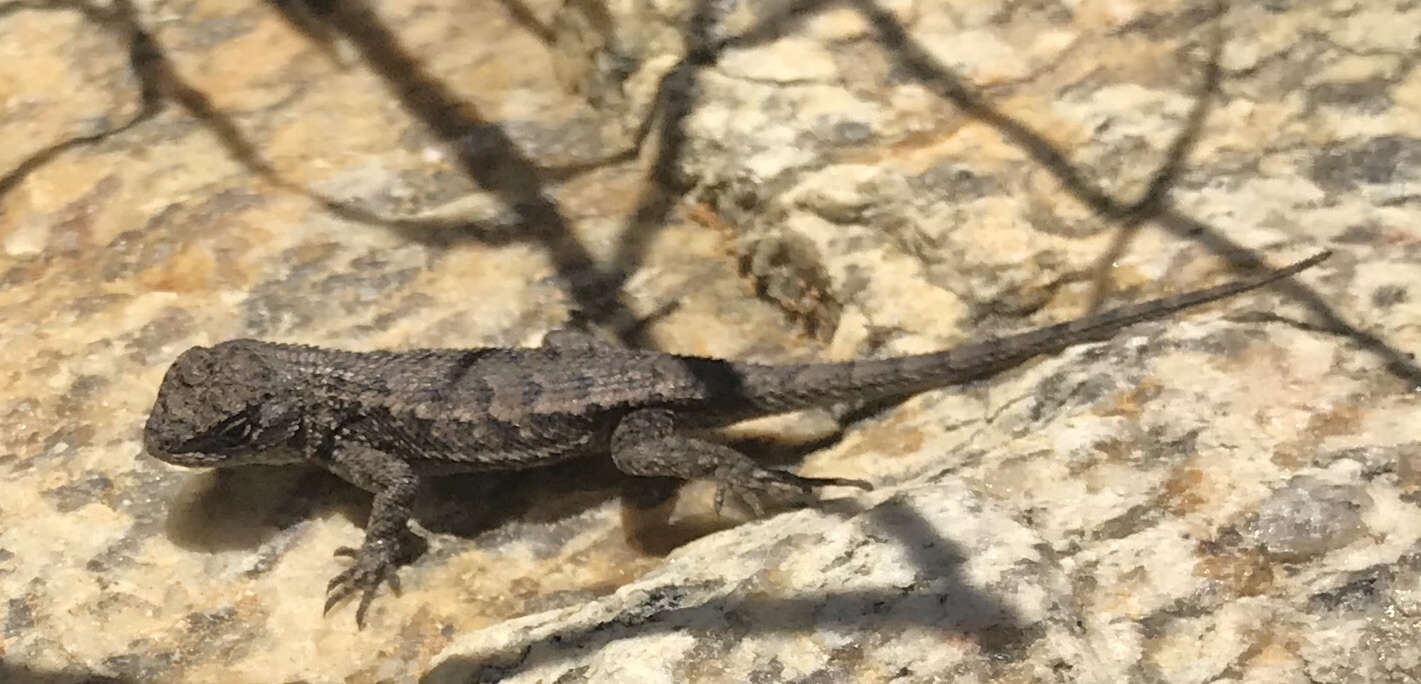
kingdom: Animalia
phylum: Chordata
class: Squamata
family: Phrynosomatidae
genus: Sceloporus
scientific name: Sceloporus occidentalis
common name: Western fence lizard
